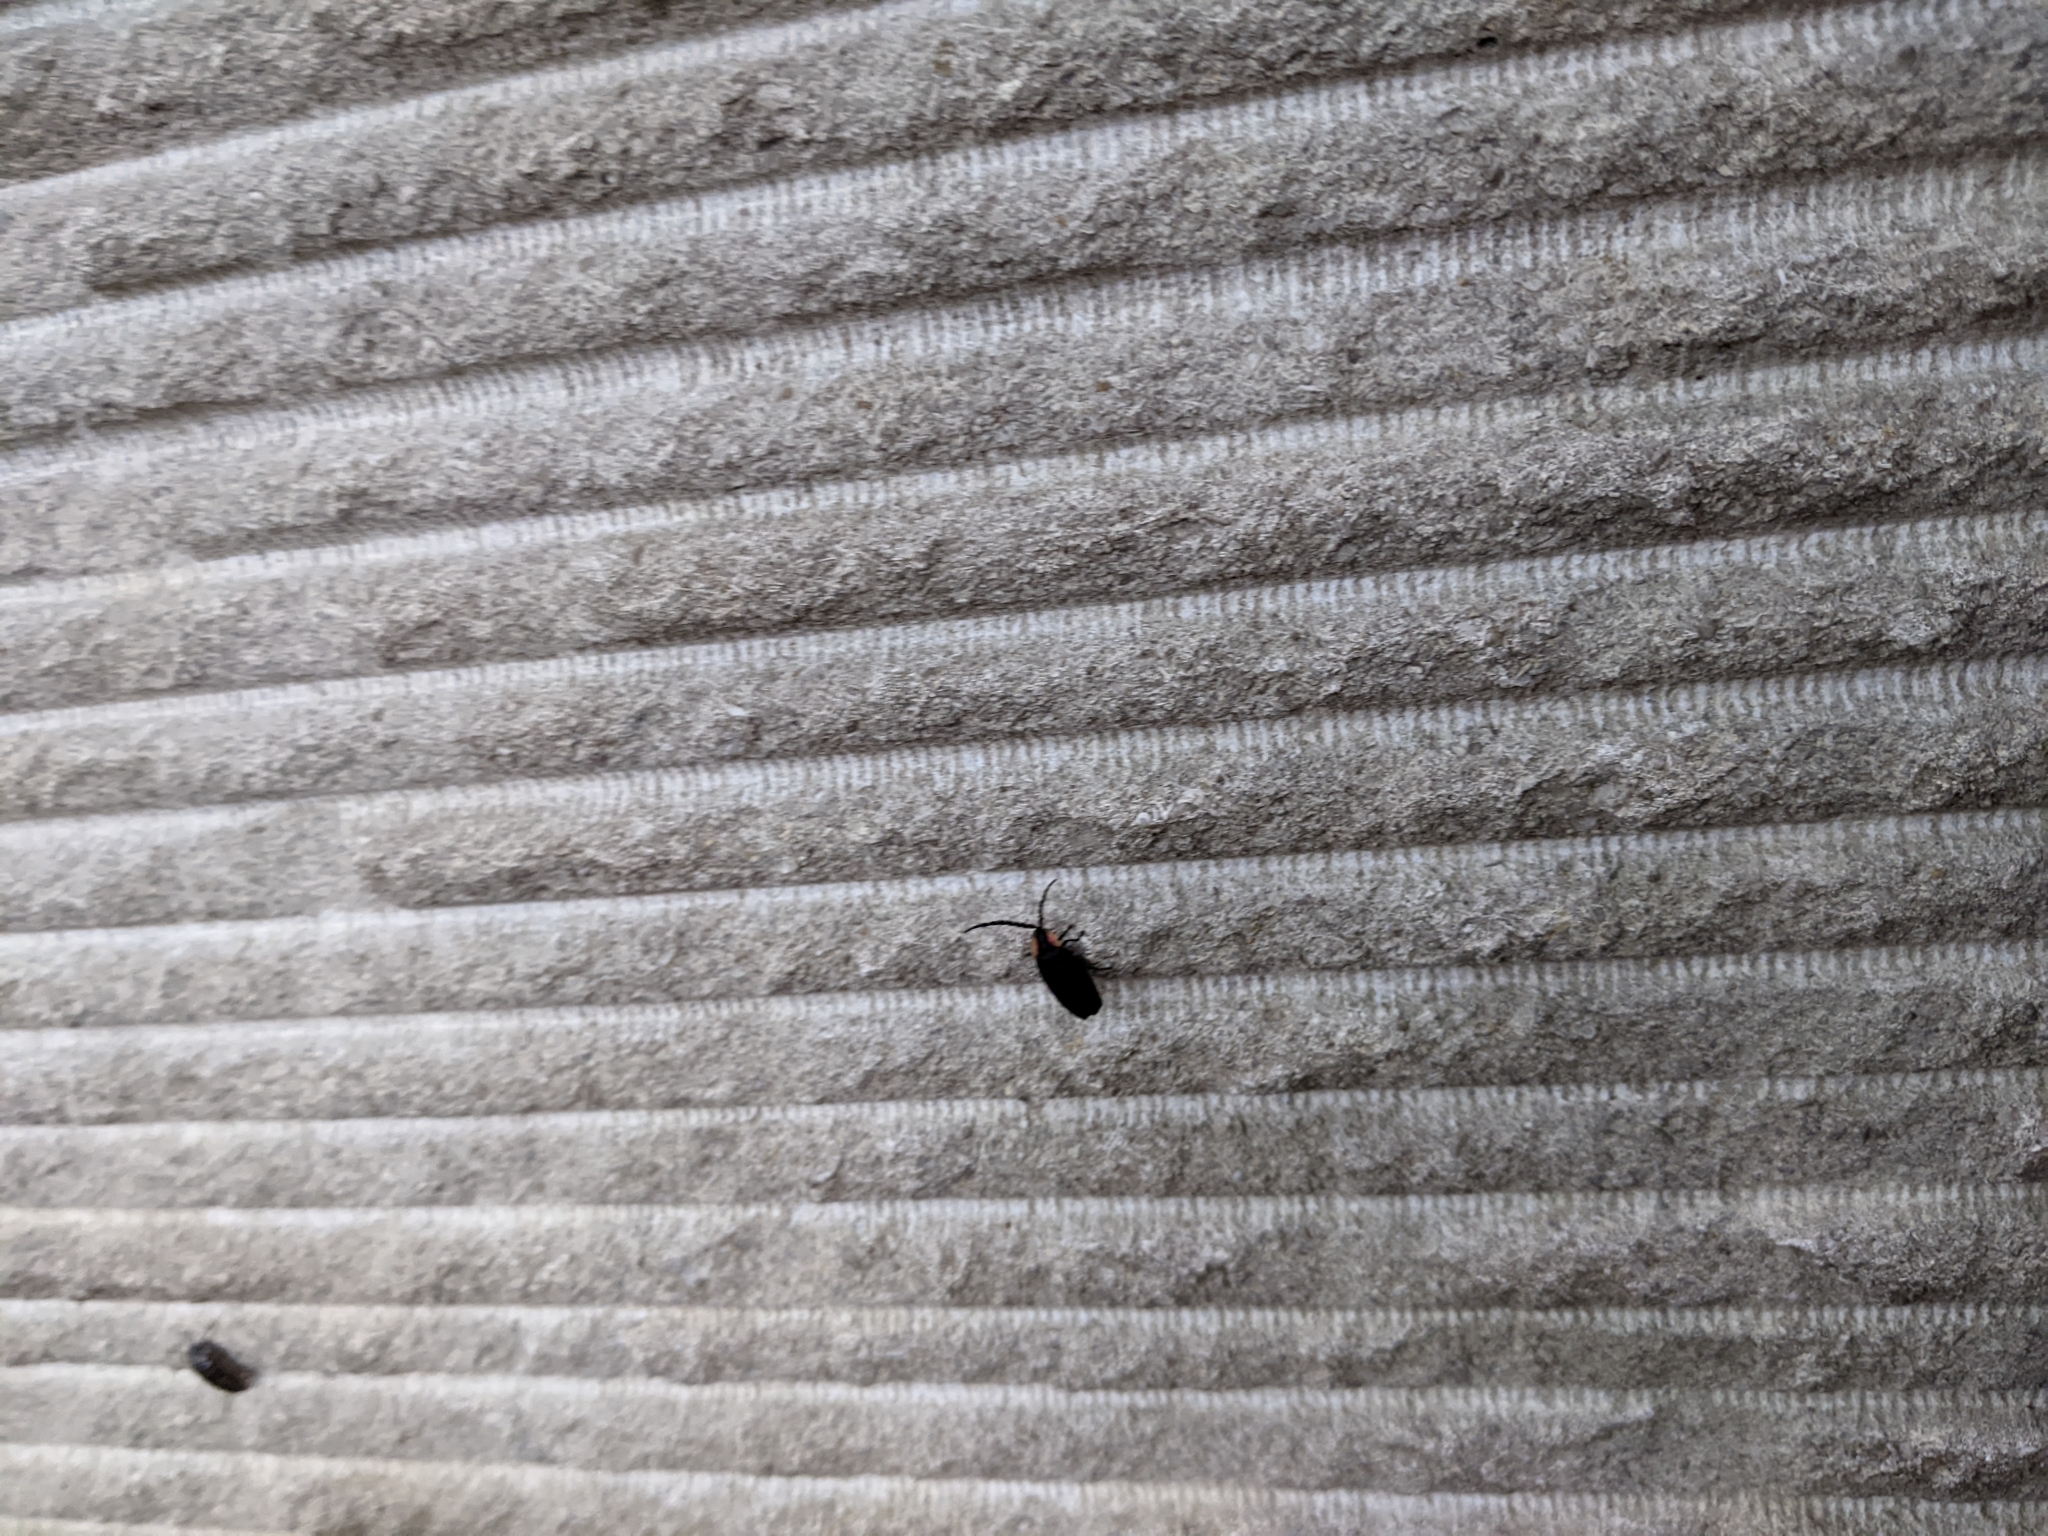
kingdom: Animalia
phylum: Arthropoda
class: Insecta
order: Coleoptera
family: Lampyridae
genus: Lucidota
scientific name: Lucidota atra
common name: Black firefly
